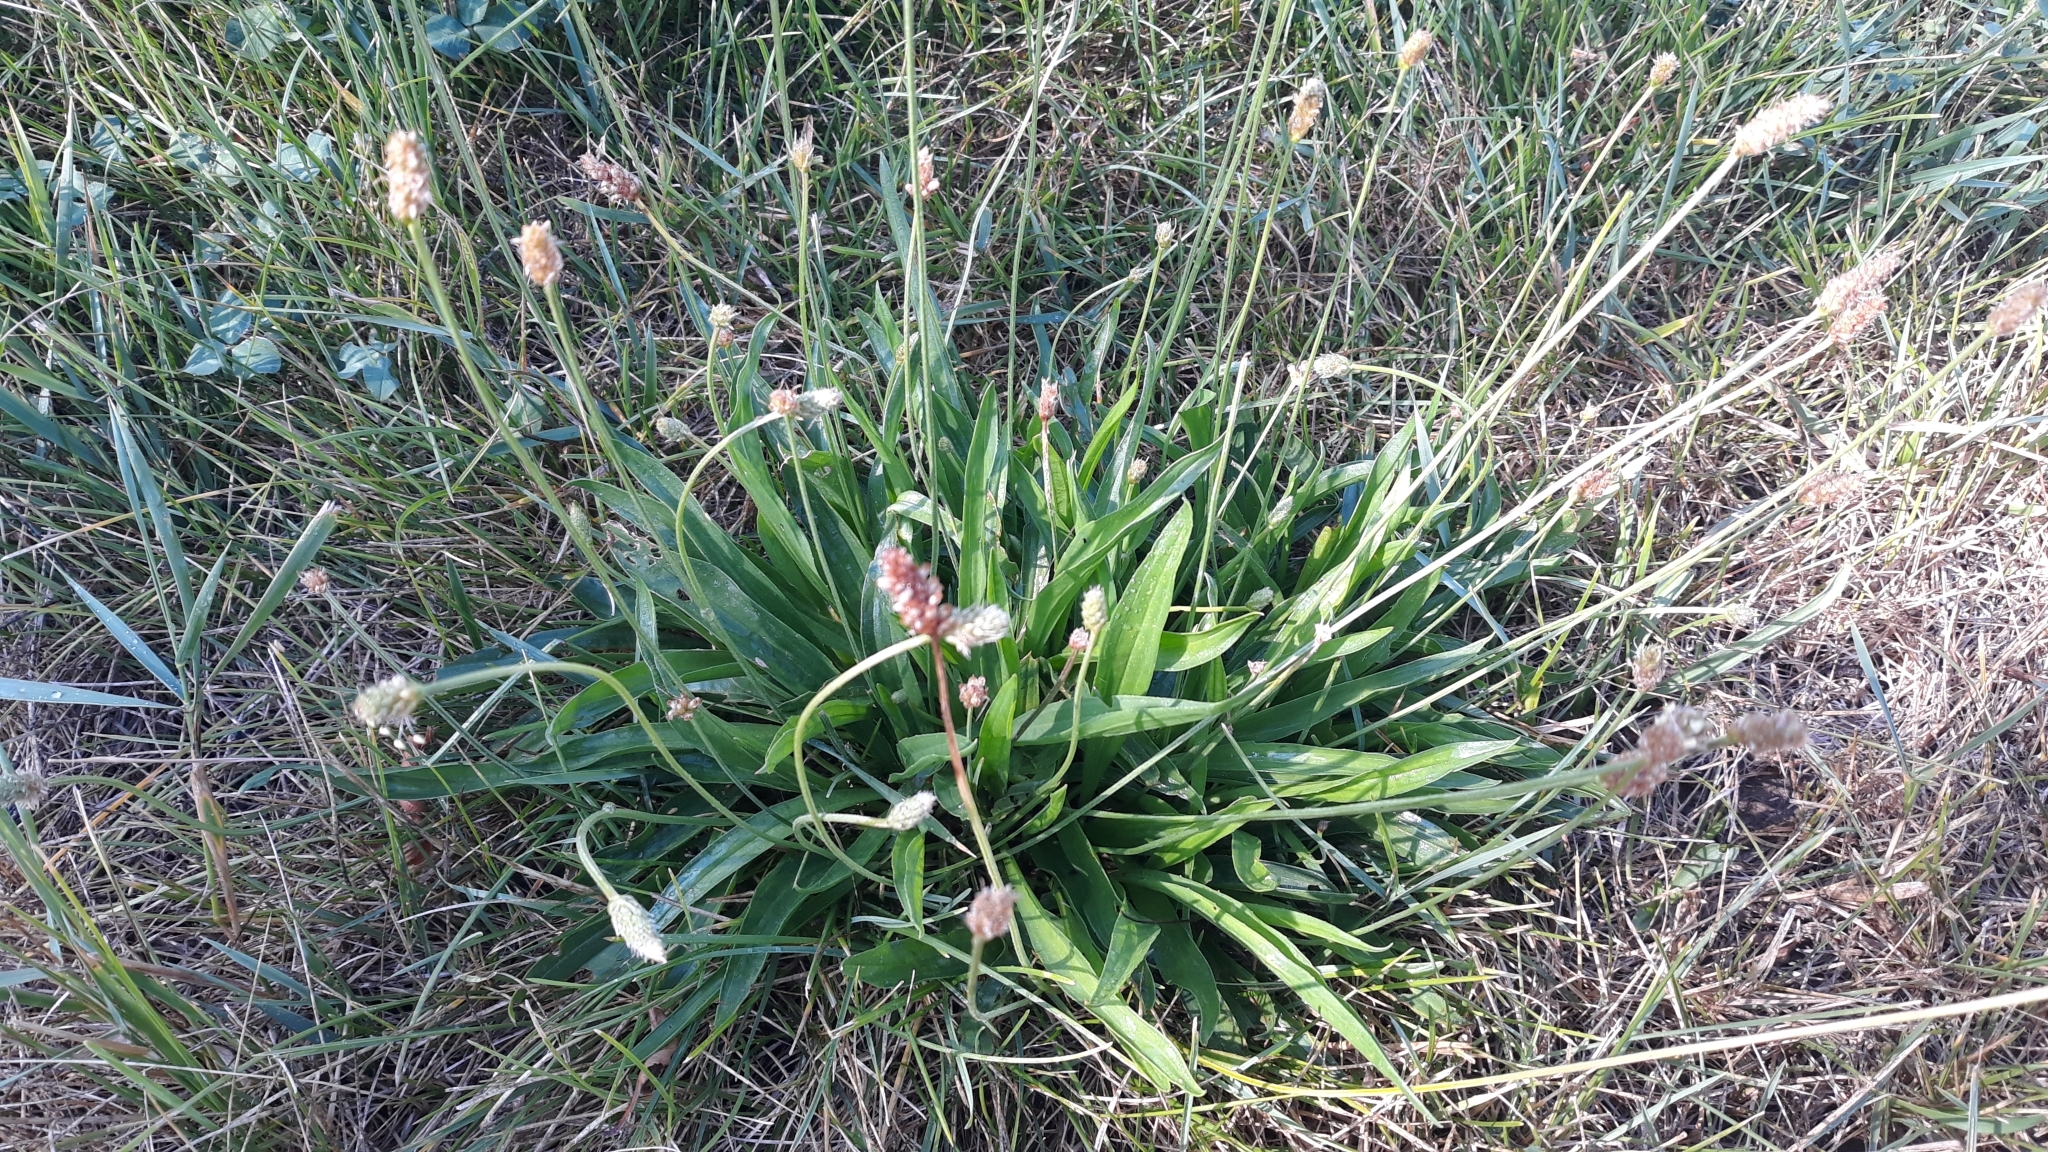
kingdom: Plantae
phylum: Tracheophyta
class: Magnoliopsida
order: Lamiales
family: Plantaginaceae
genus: Plantago
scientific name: Plantago lanceolata
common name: Ribwort plantain
